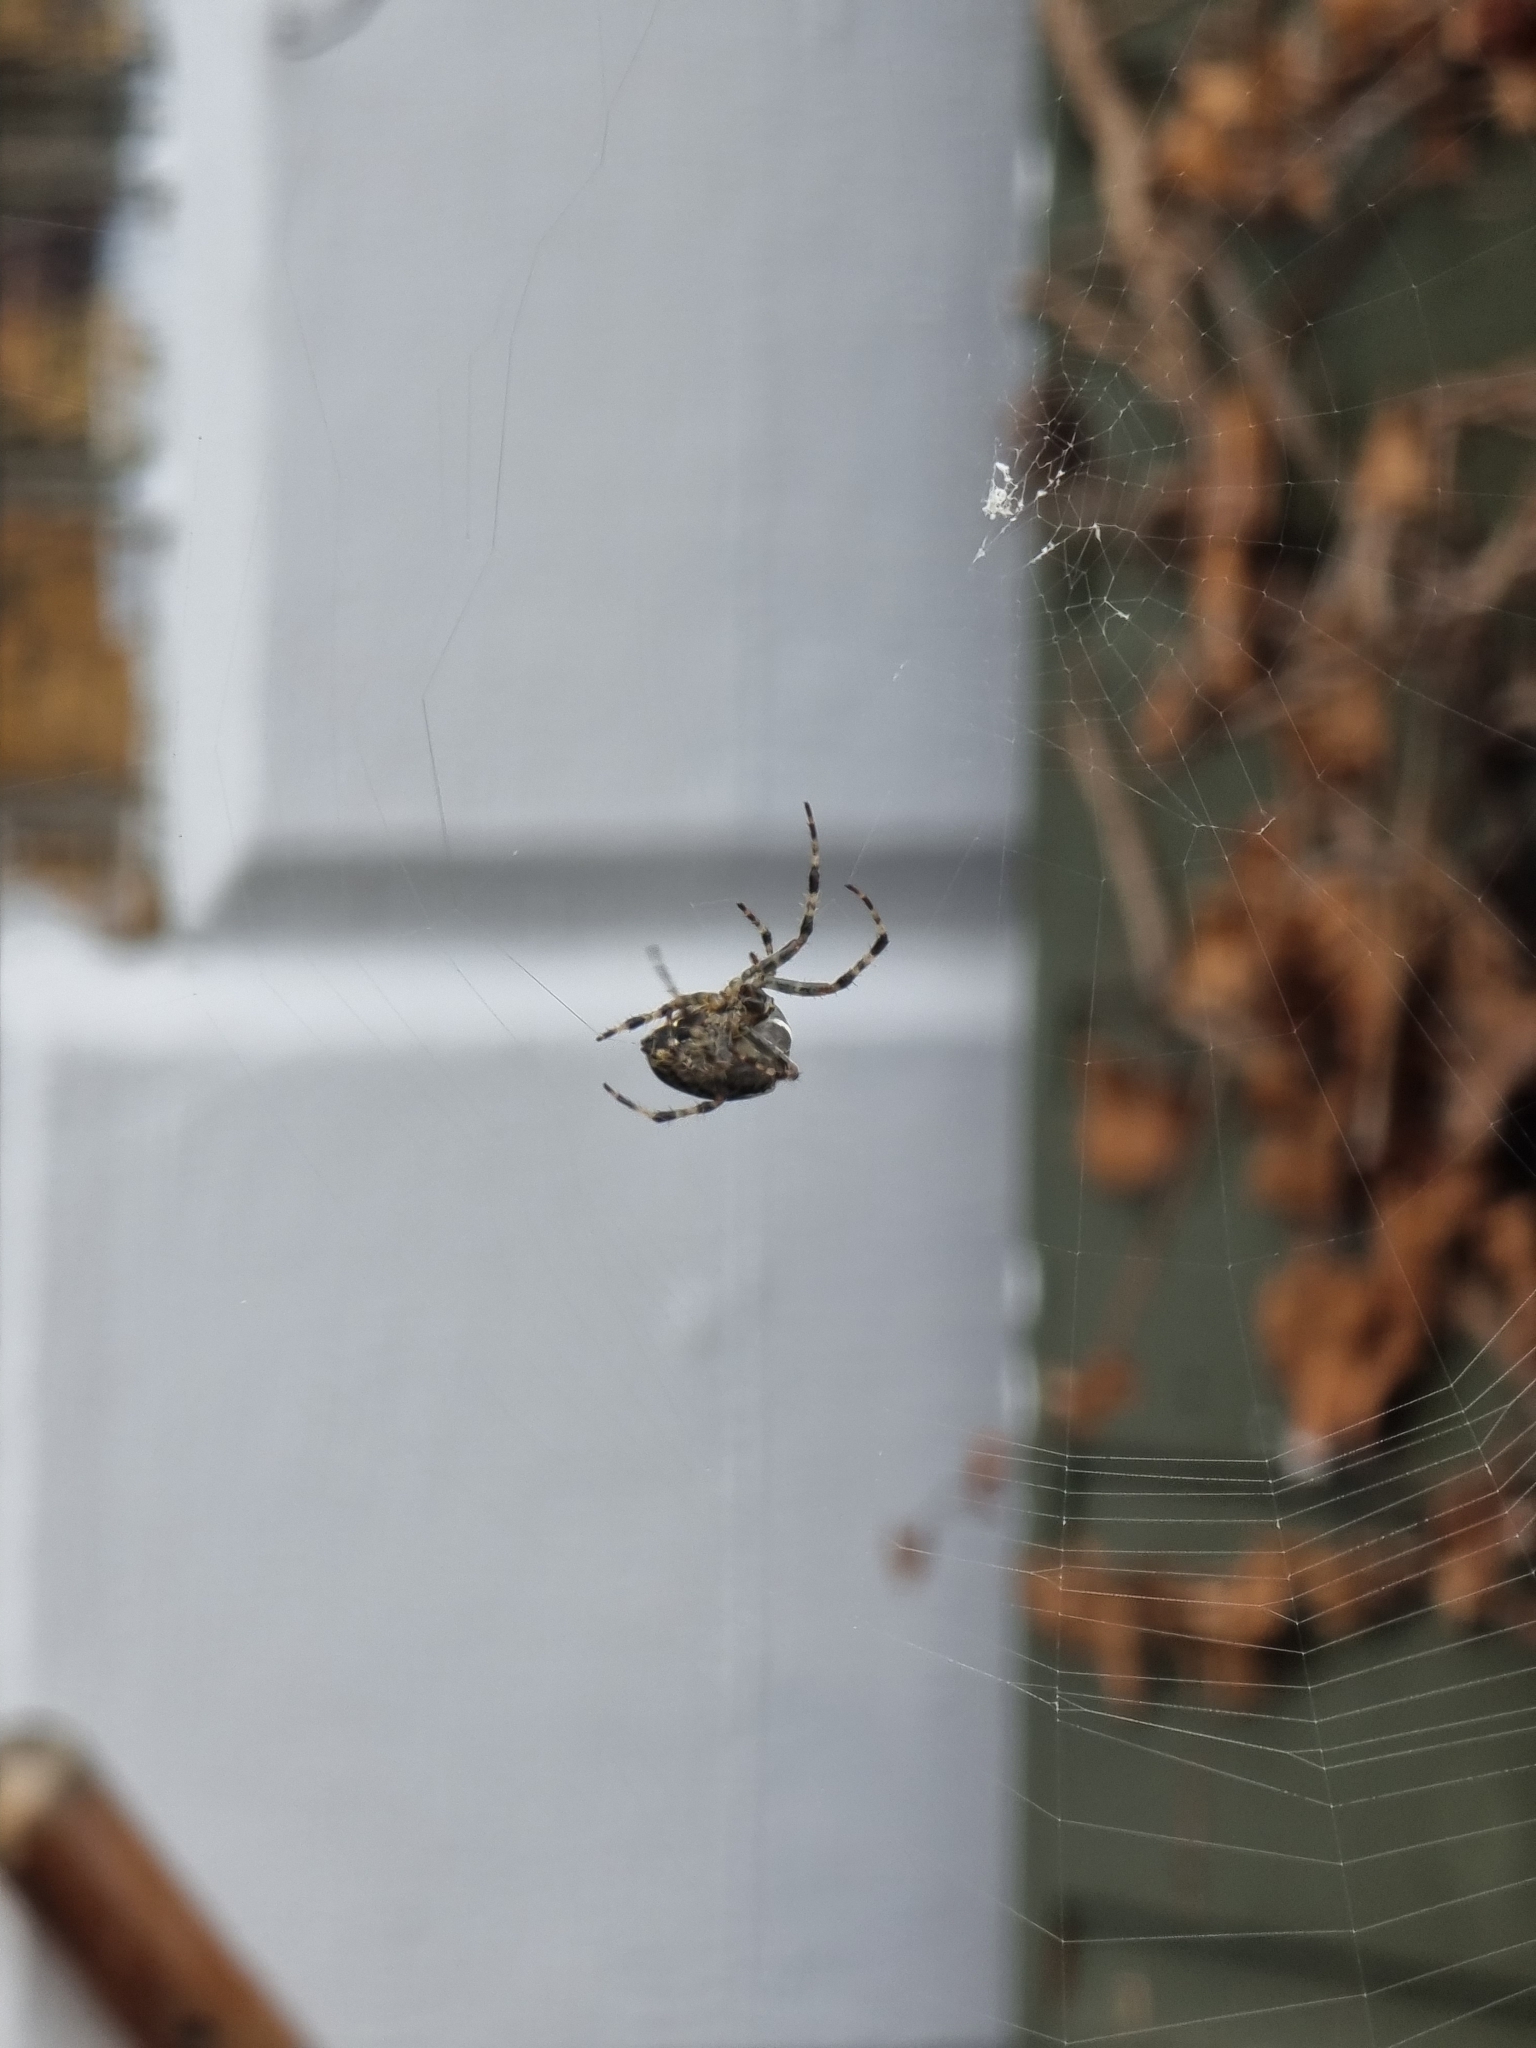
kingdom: Animalia
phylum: Arthropoda
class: Arachnida
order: Araneae
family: Araneidae
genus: Araneus
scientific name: Araneus diadematus
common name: Cross orbweaver
